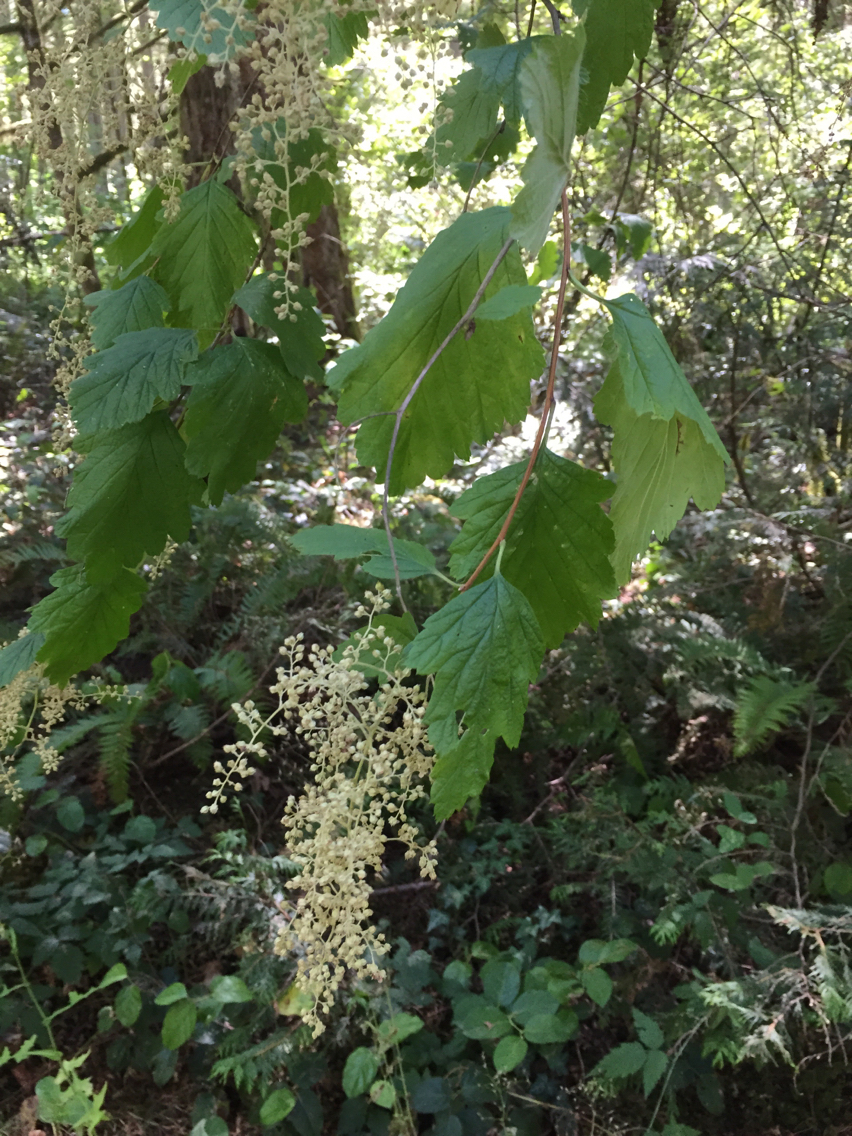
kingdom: Plantae
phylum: Tracheophyta
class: Magnoliopsida
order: Rosales
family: Rosaceae
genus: Holodiscus
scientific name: Holodiscus discolor
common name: Oceanspray
